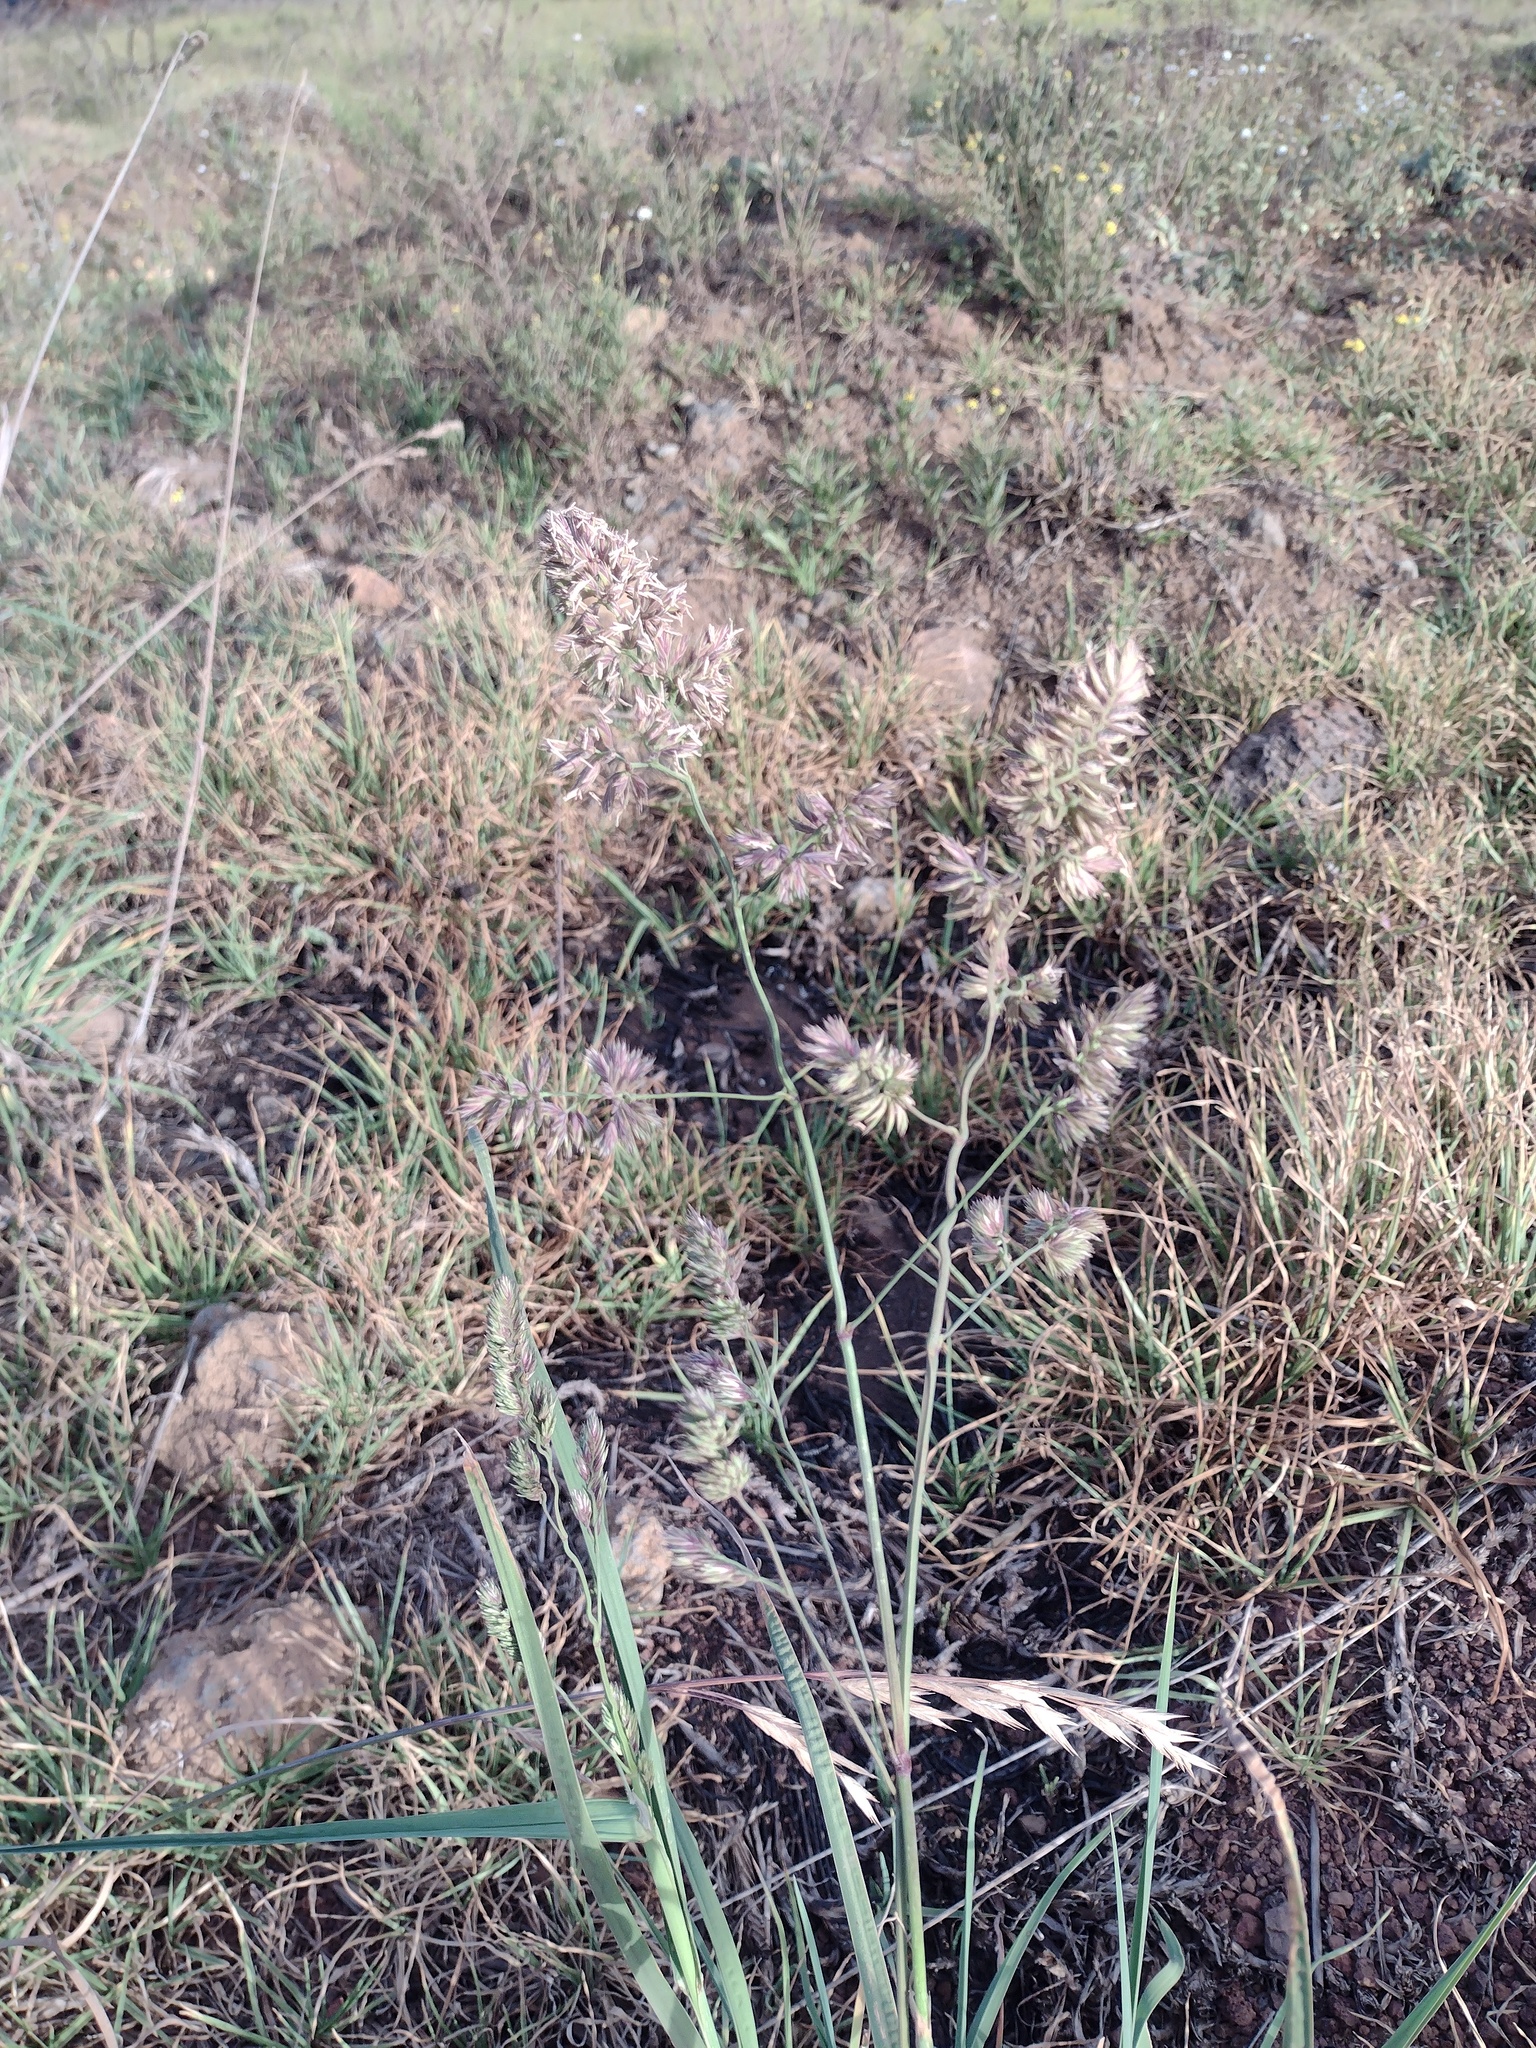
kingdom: Plantae
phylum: Tracheophyta
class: Liliopsida
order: Poales
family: Poaceae
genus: Dactylis
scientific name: Dactylis glomerata
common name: Orchardgrass
